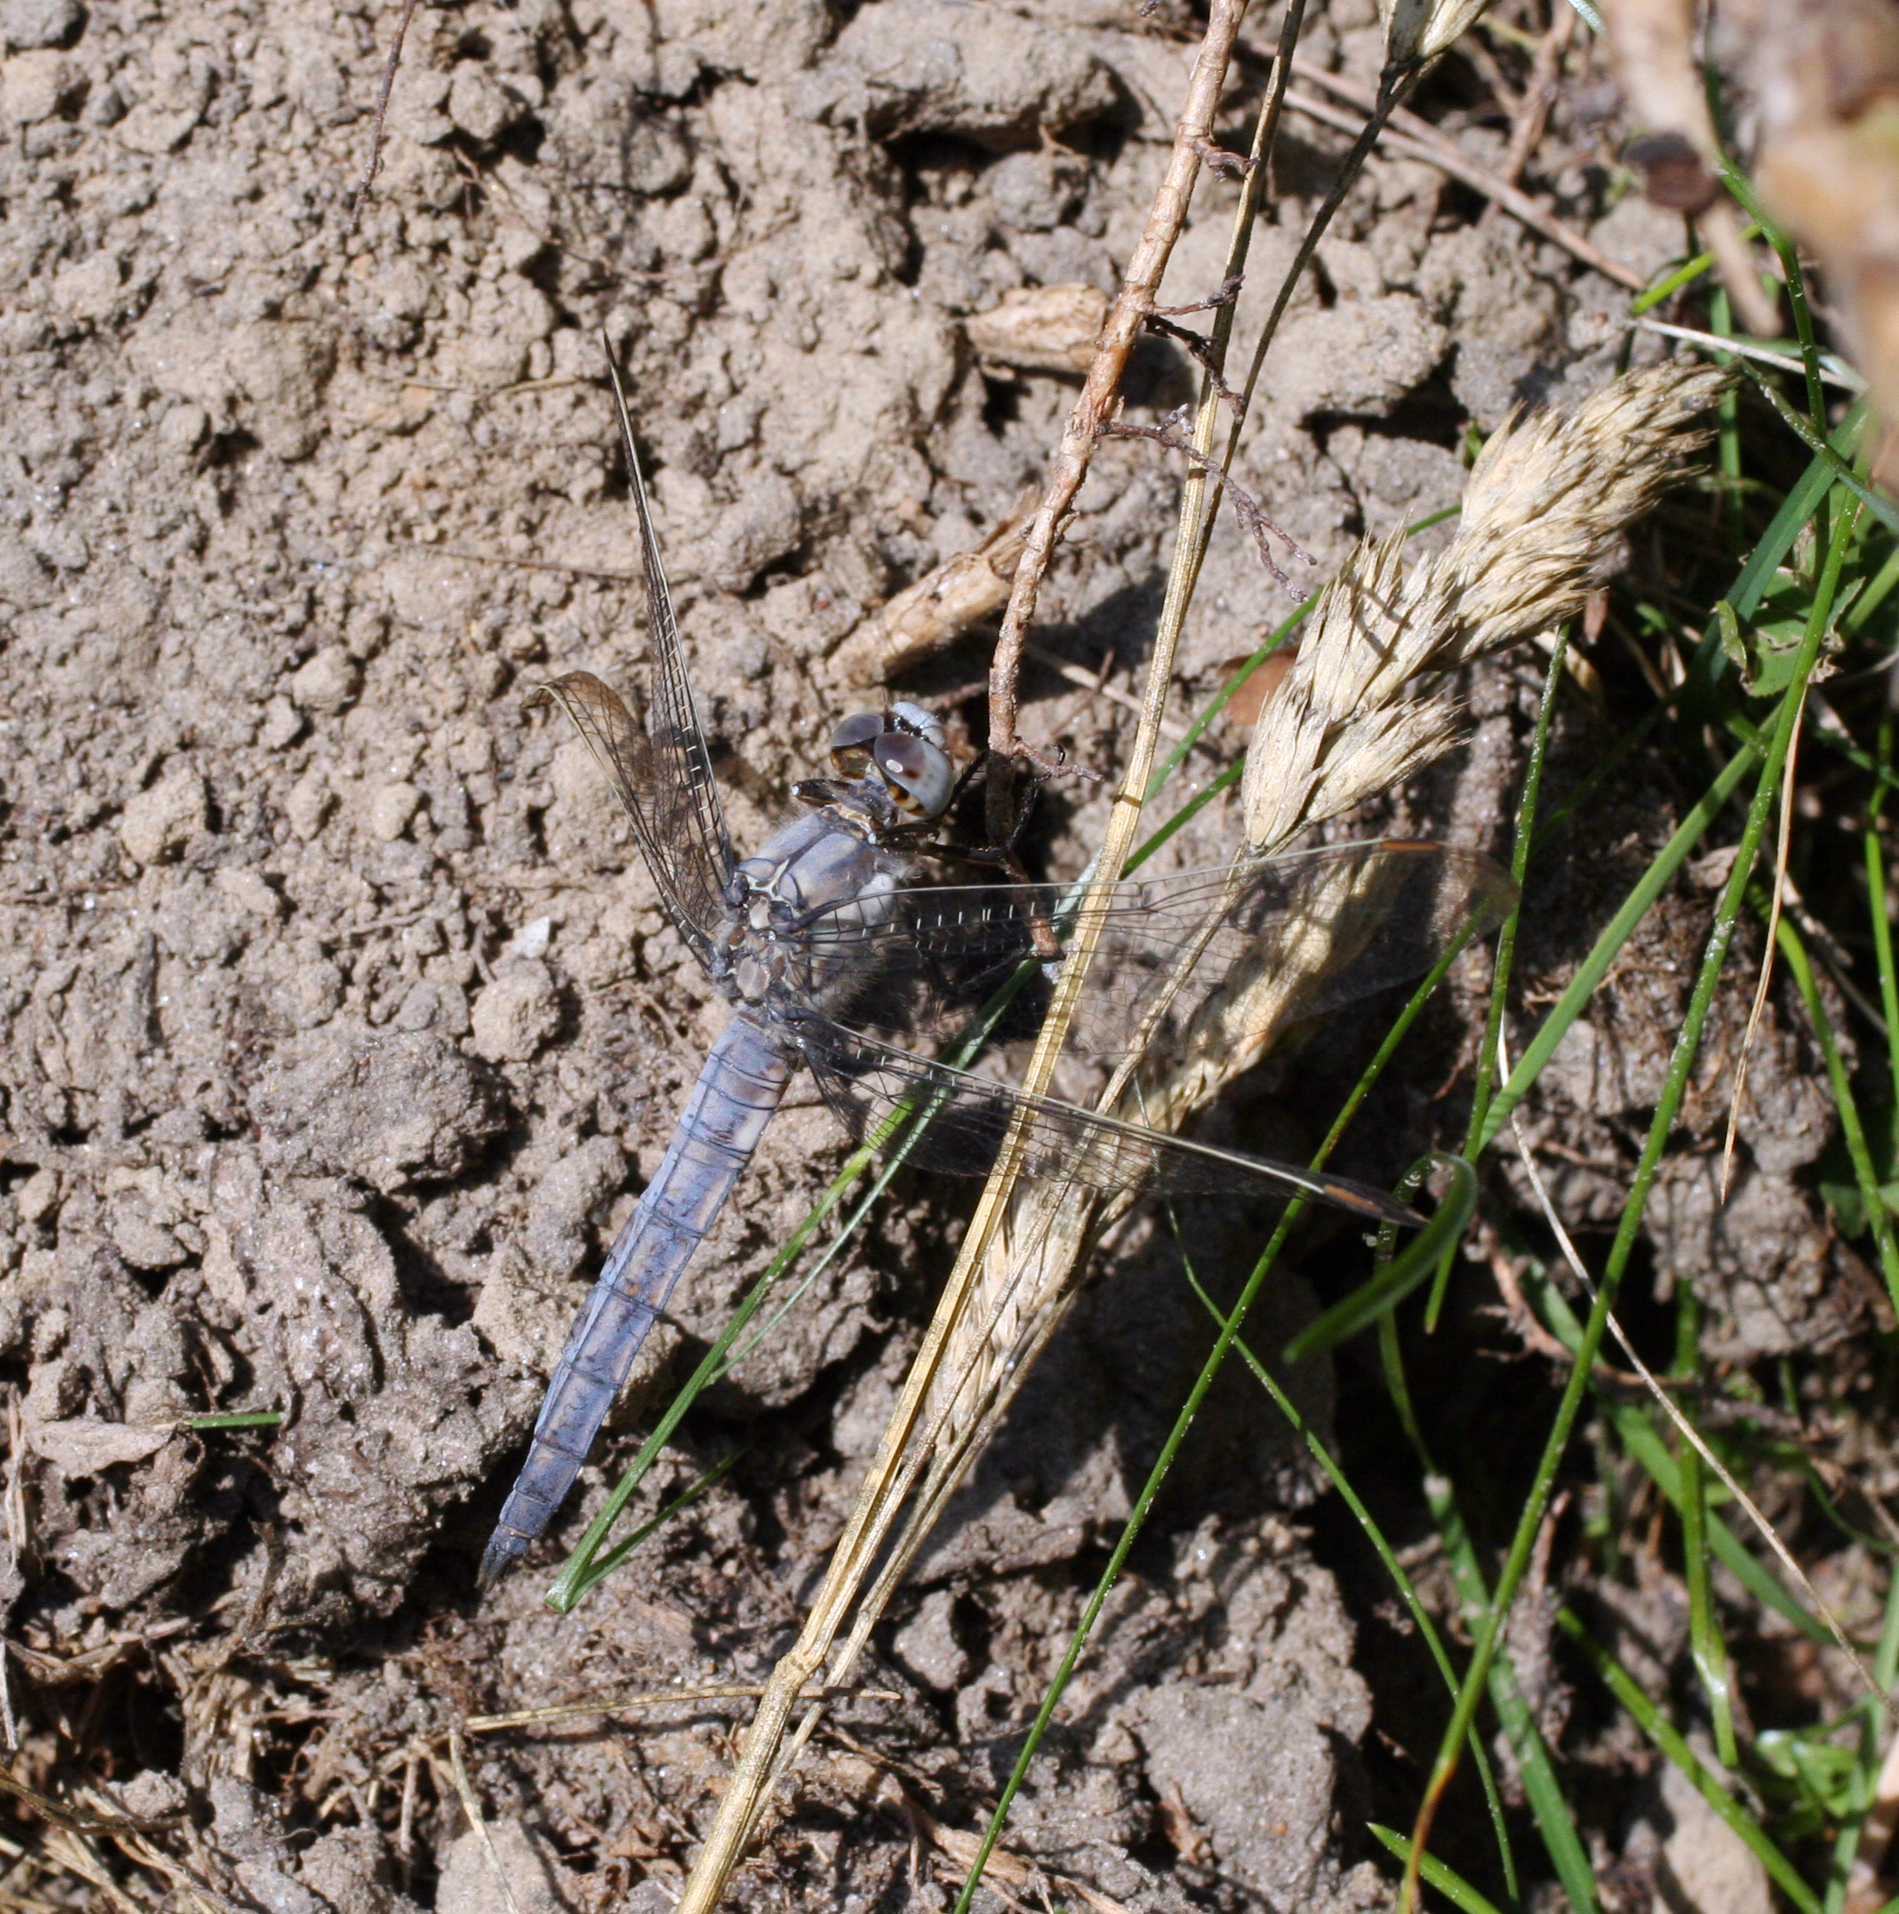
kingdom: Animalia
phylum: Arthropoda
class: Insecta
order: Odonata
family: Libellulidae
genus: Orthetrum
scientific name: Orthetrum brunneum
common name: Southern skimmer
